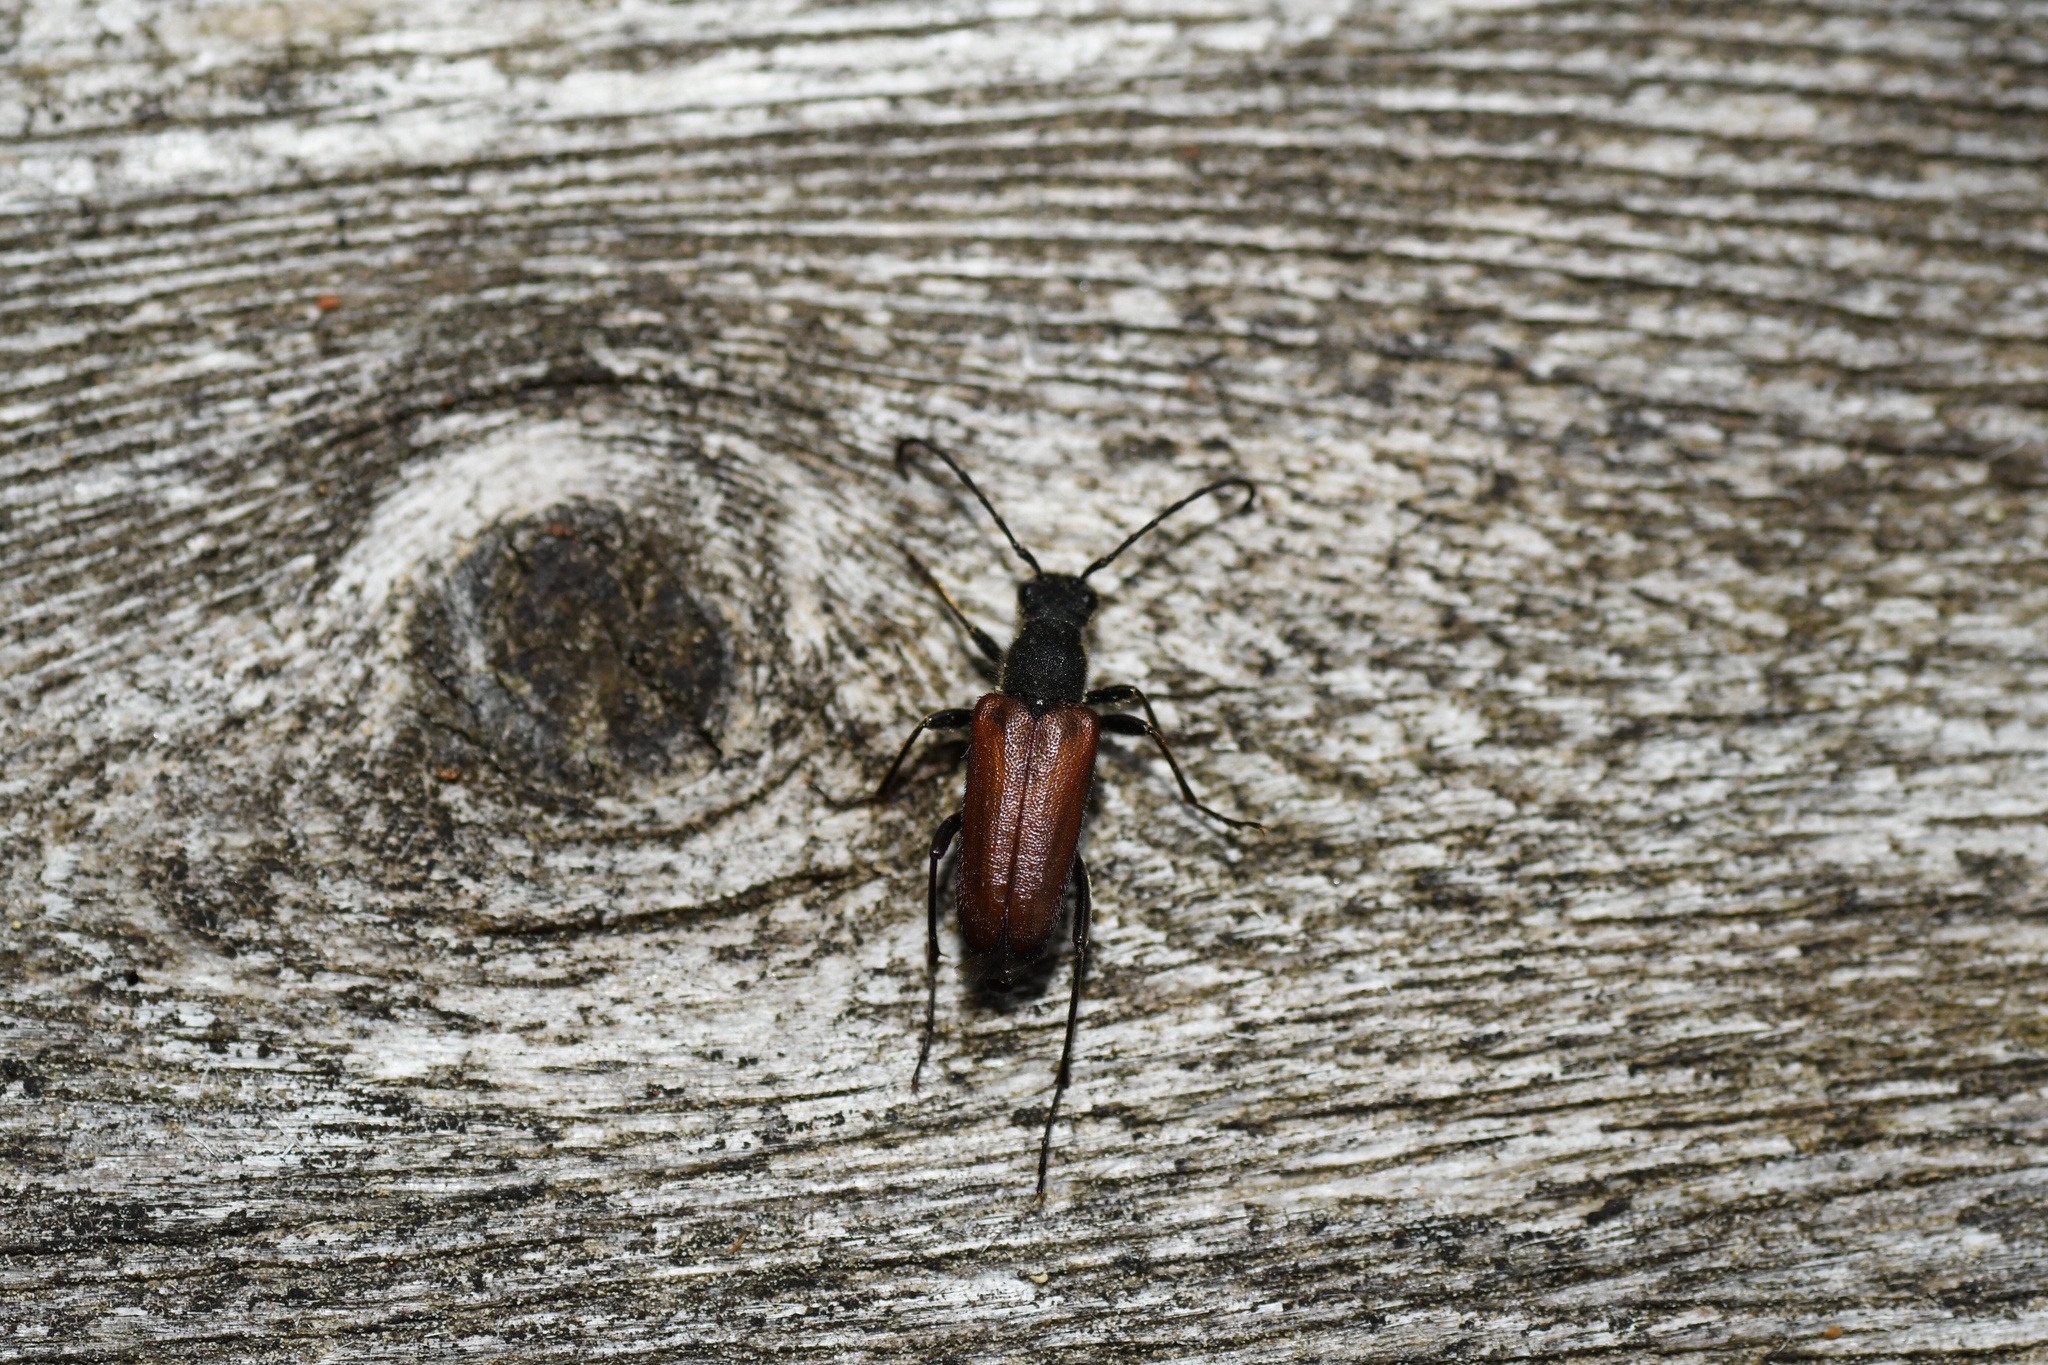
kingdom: Animalia
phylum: Arthropoda
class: Insecta
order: Coleoptera
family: Cerambycidae
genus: Anastrangalia
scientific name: Anastrangalia sanguinea
